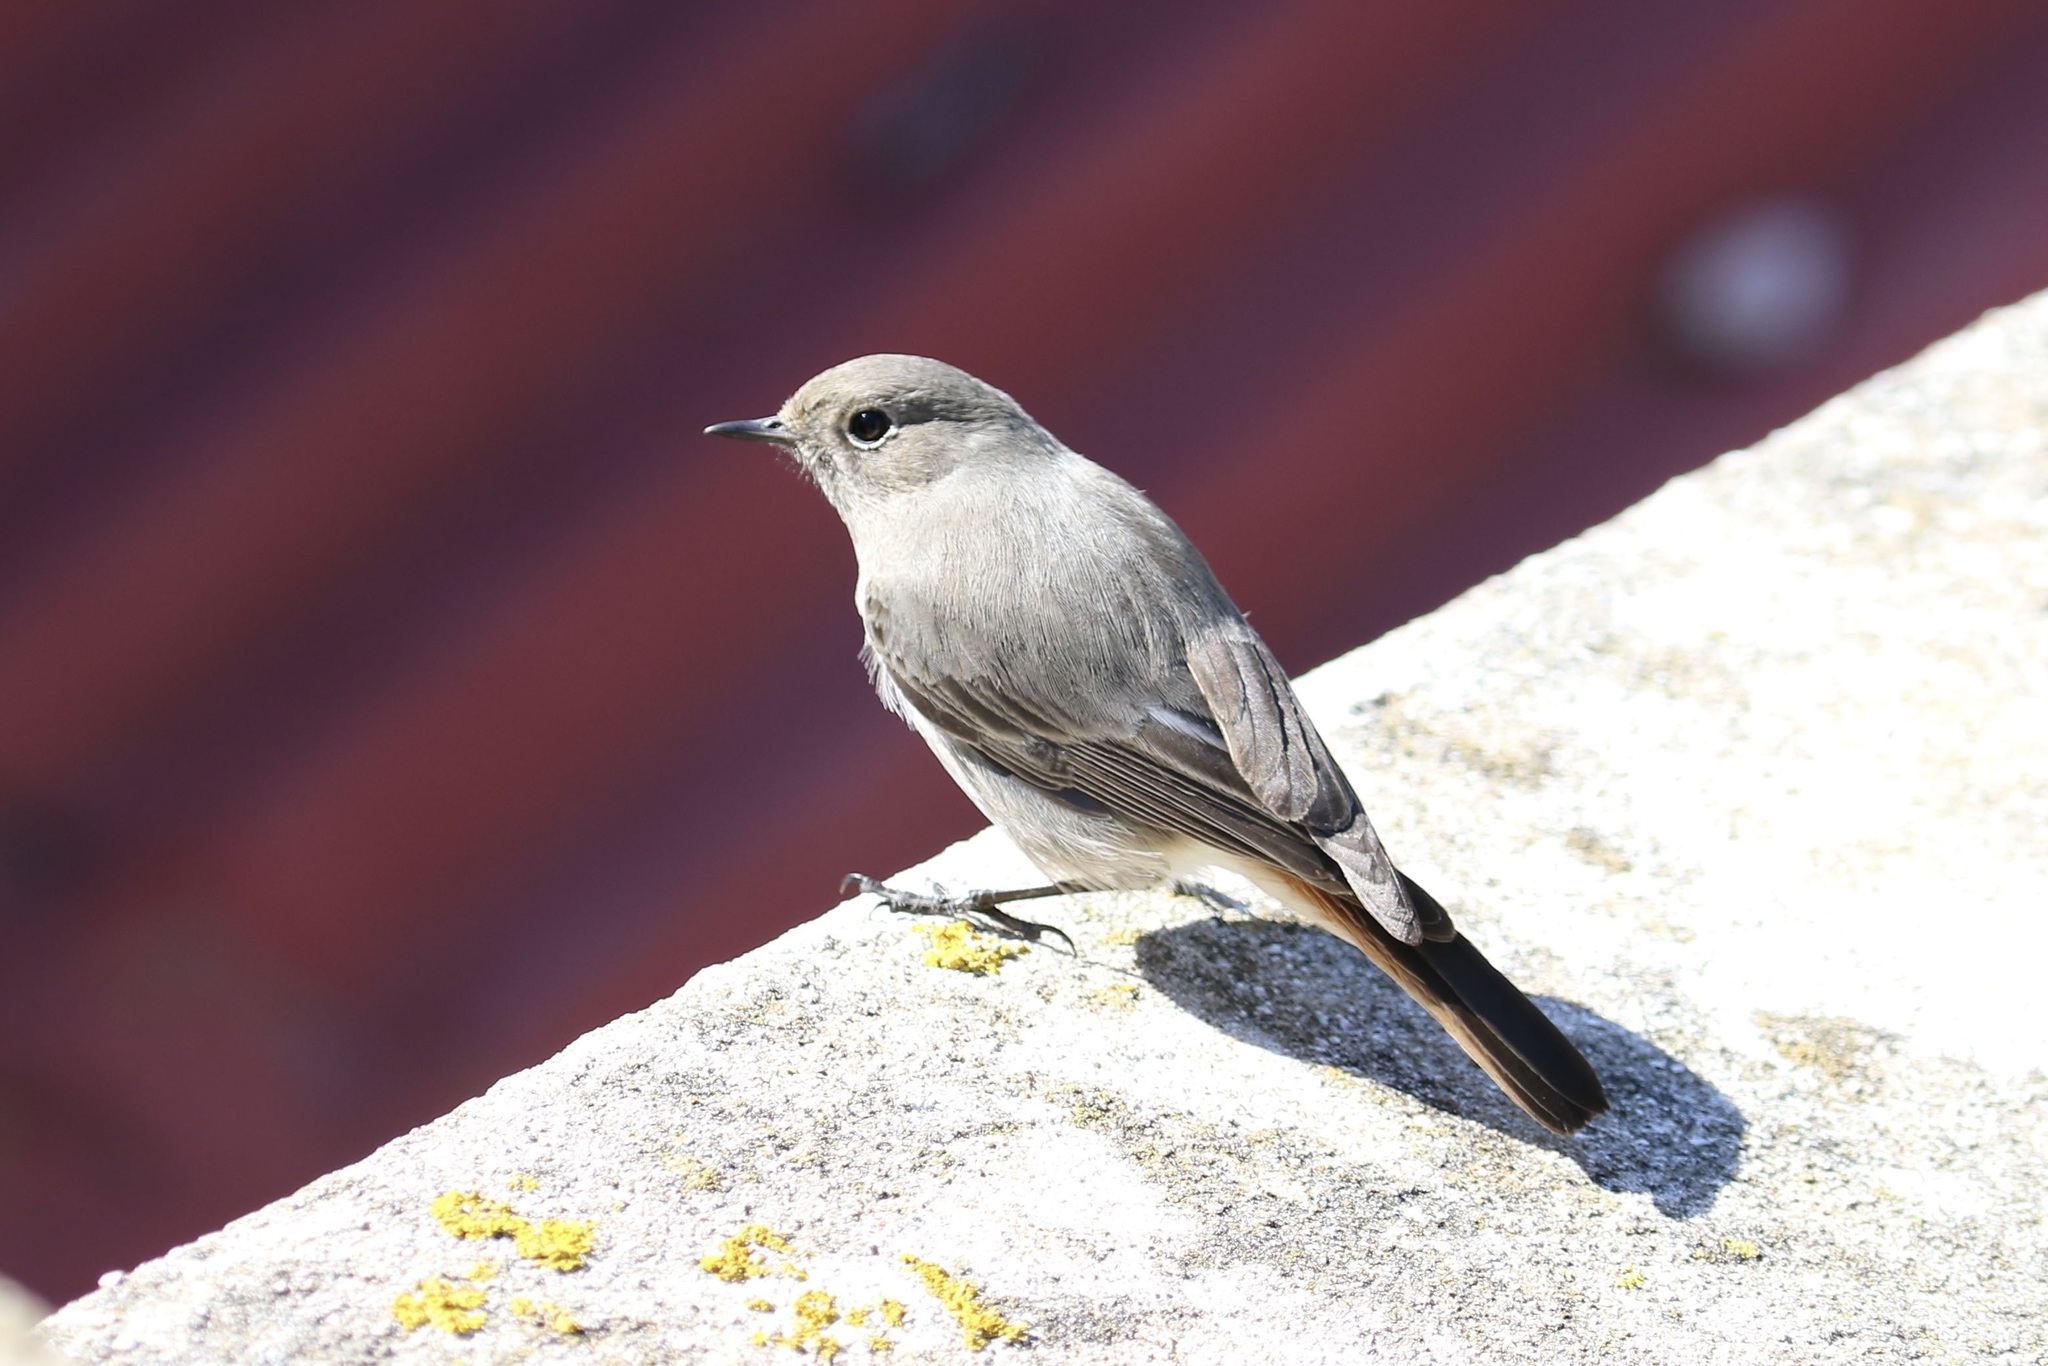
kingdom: Animalia
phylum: Chordata
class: Aves
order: Passeriformes
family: Muscicapidae
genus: Phoenicurus
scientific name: Phoenicurus ochruros
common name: Black redstart
